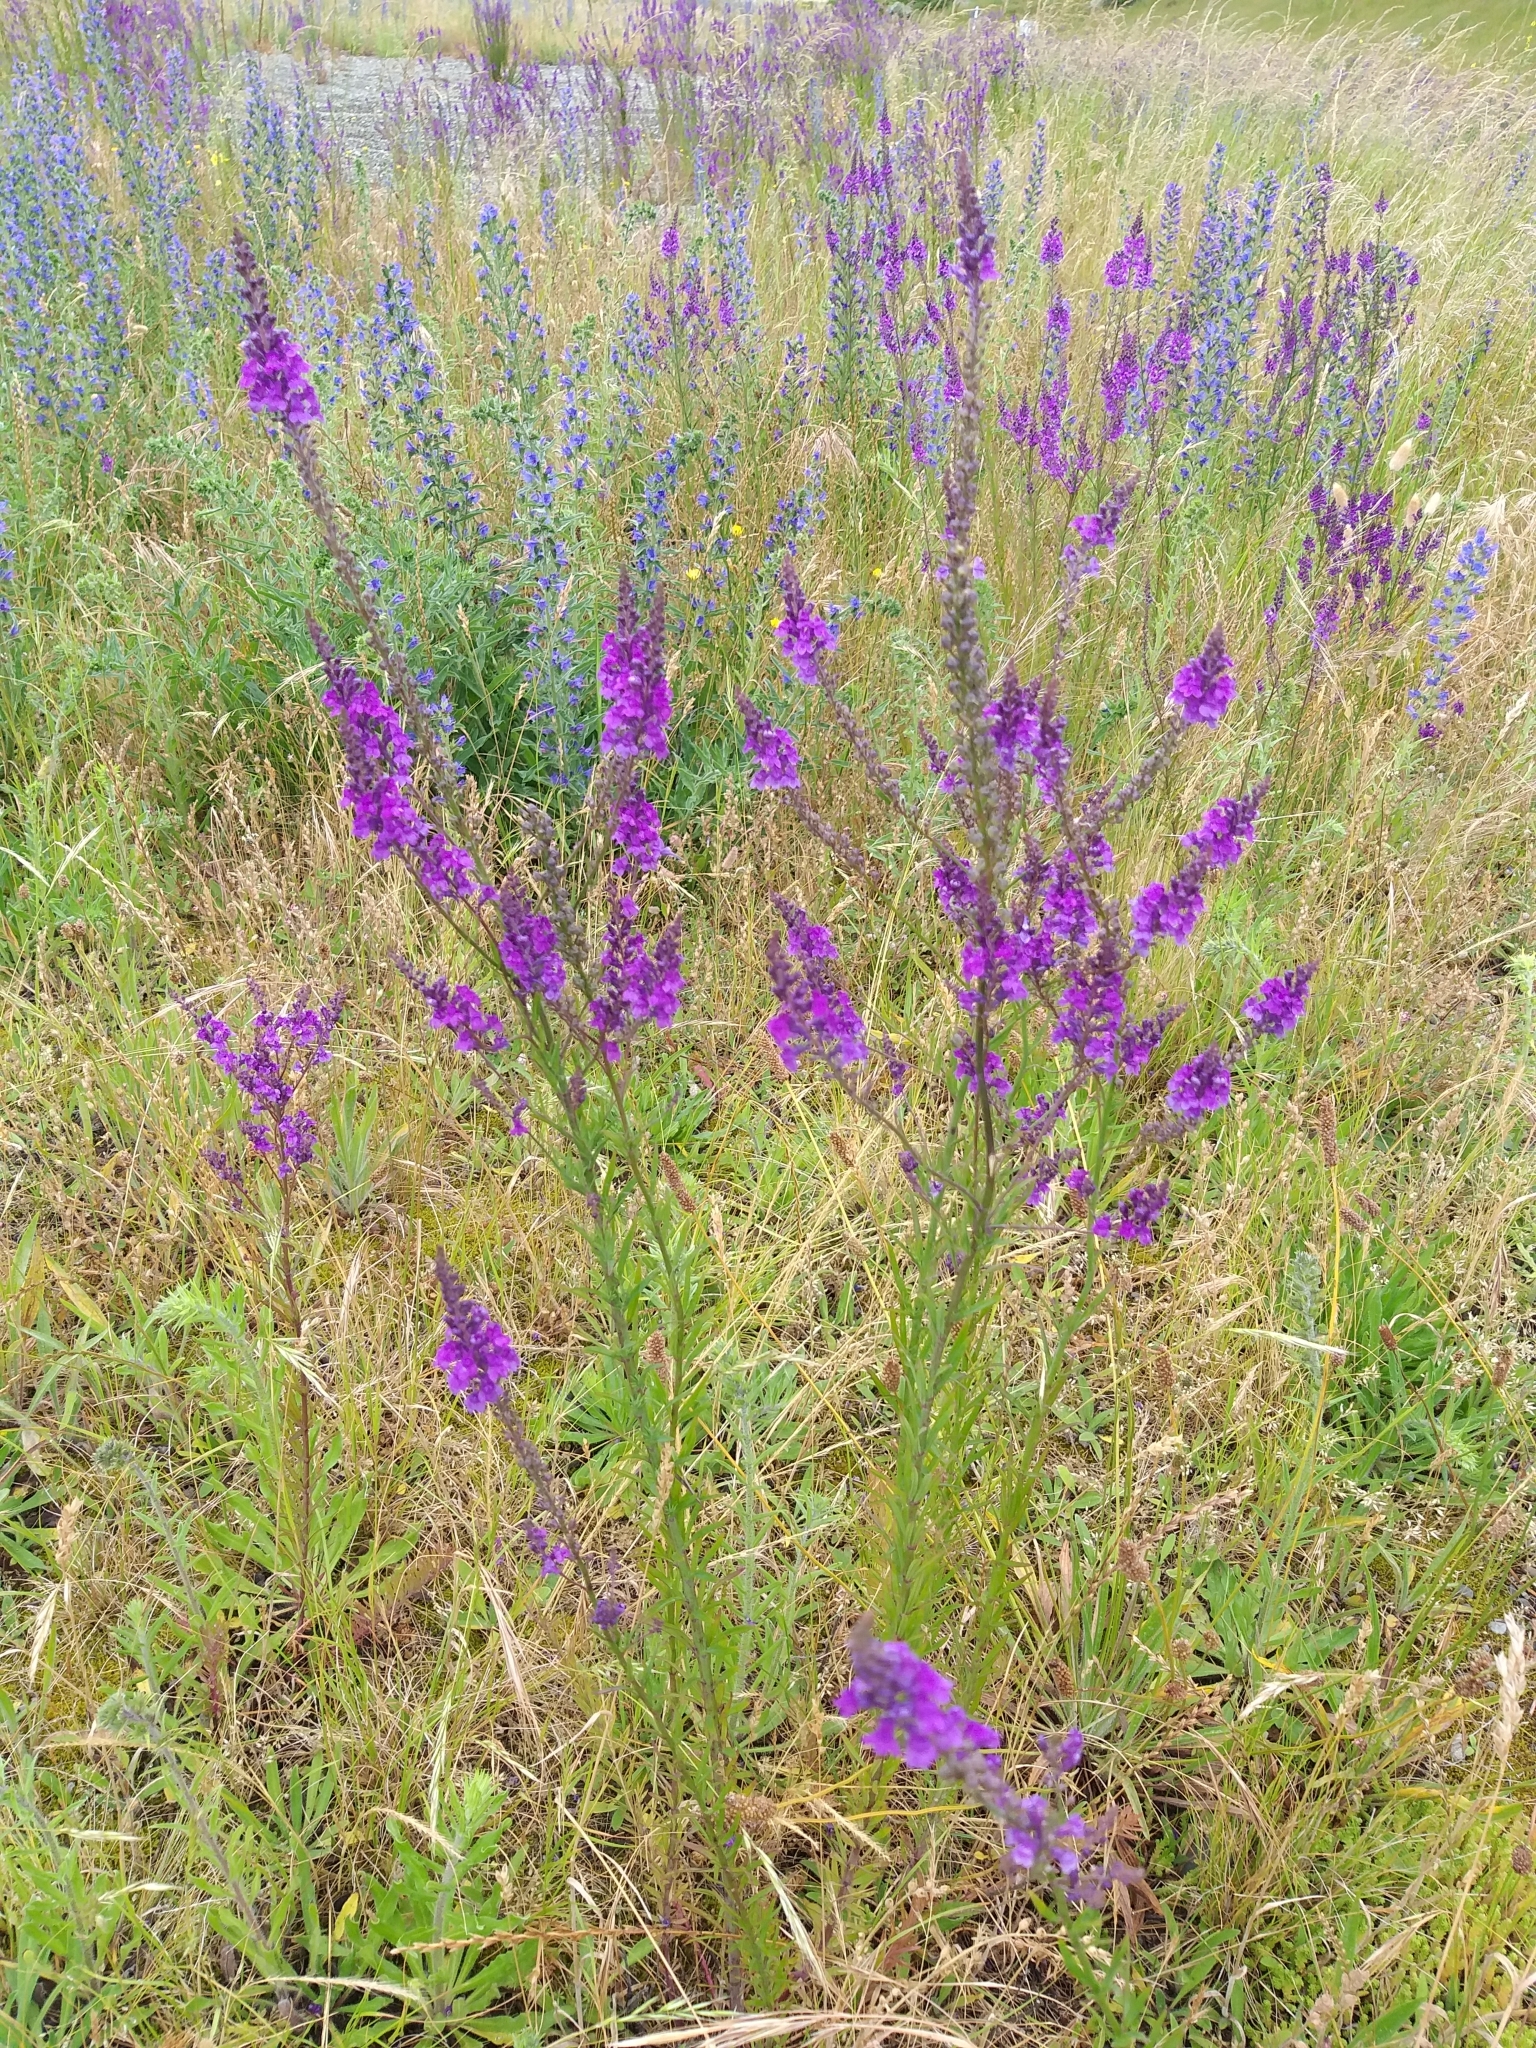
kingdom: Plantae
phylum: Tracheophyta
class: Magnoliopsida
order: Lamiales
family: Plantaginaceae
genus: Linaria
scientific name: Linaria purpurea
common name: Purple toadflax
